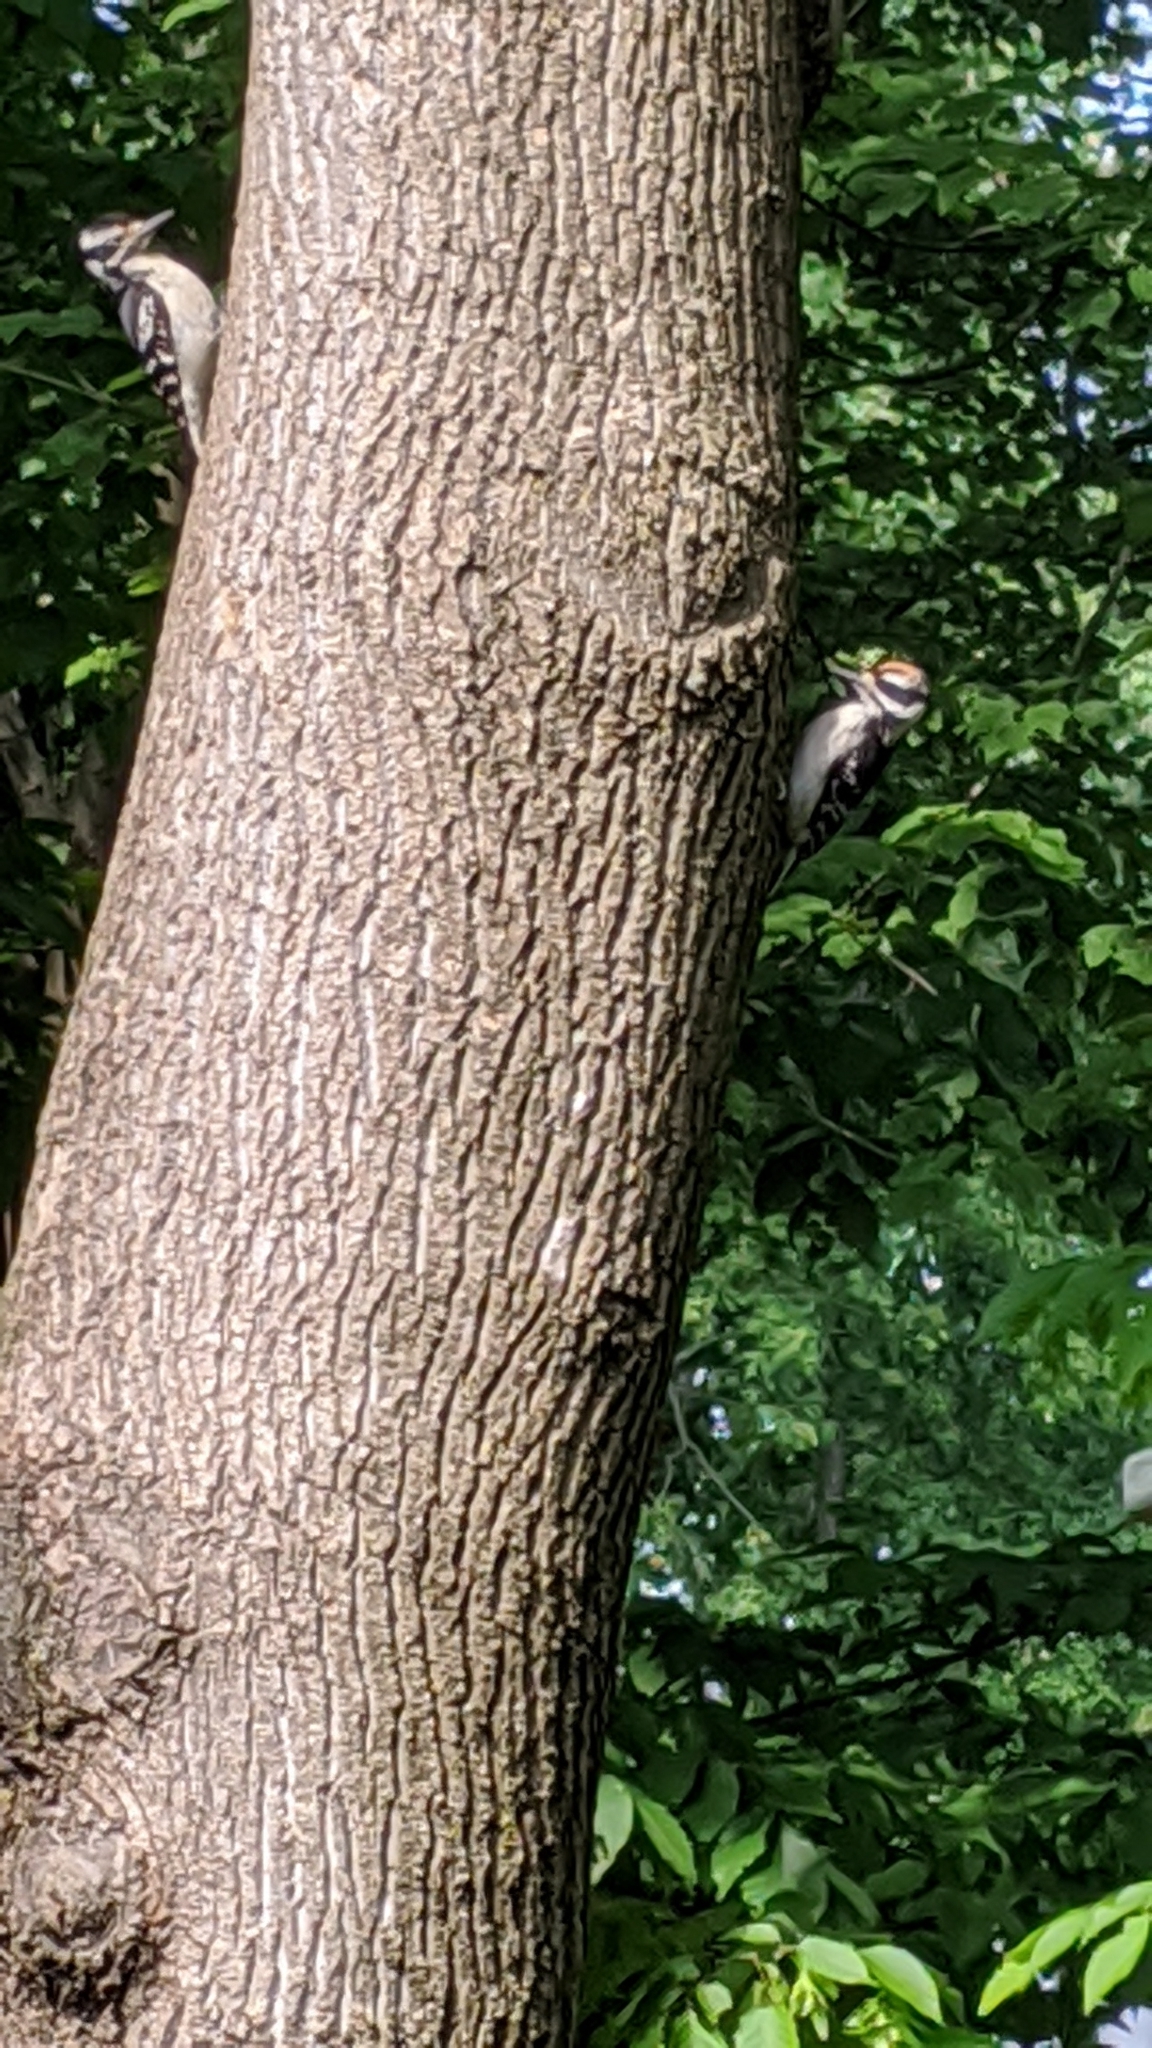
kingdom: Animalia
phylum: Chordata
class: Aves
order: Piciformes
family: Picidae
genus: Leuconotopicus
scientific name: Leuconotopicus villosus
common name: Hairy woodpecker
